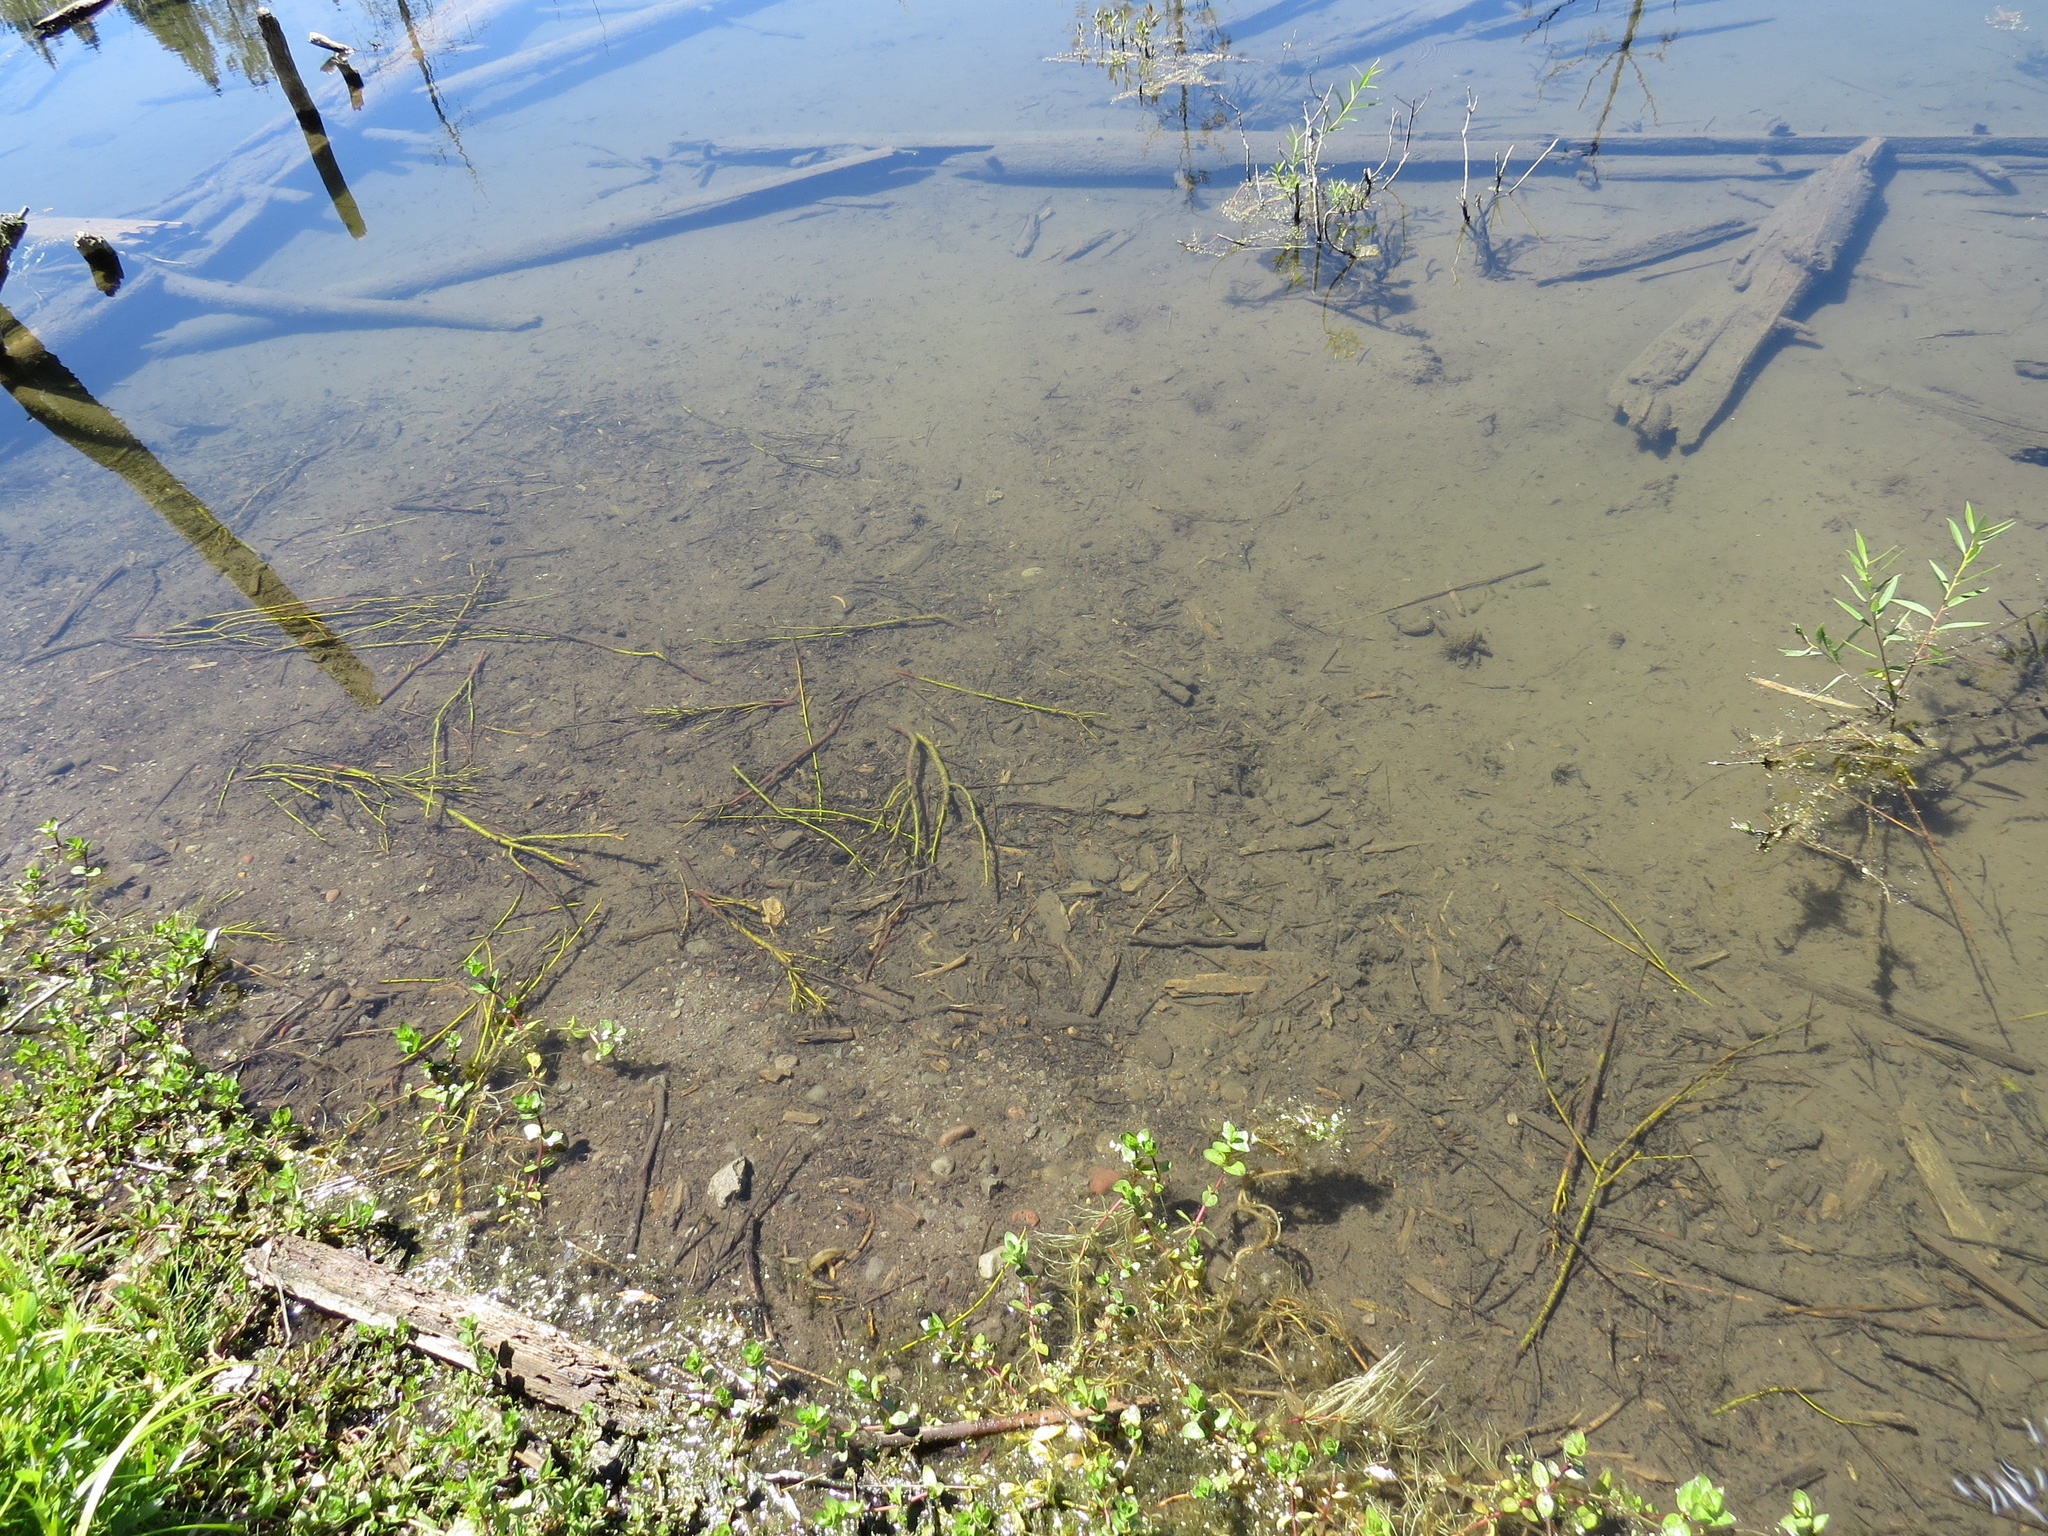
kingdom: Animalia
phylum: Chordata
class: Mammalia
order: Rodentia
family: Castoridae
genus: Castor
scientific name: Castor canadensis
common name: American beaver
